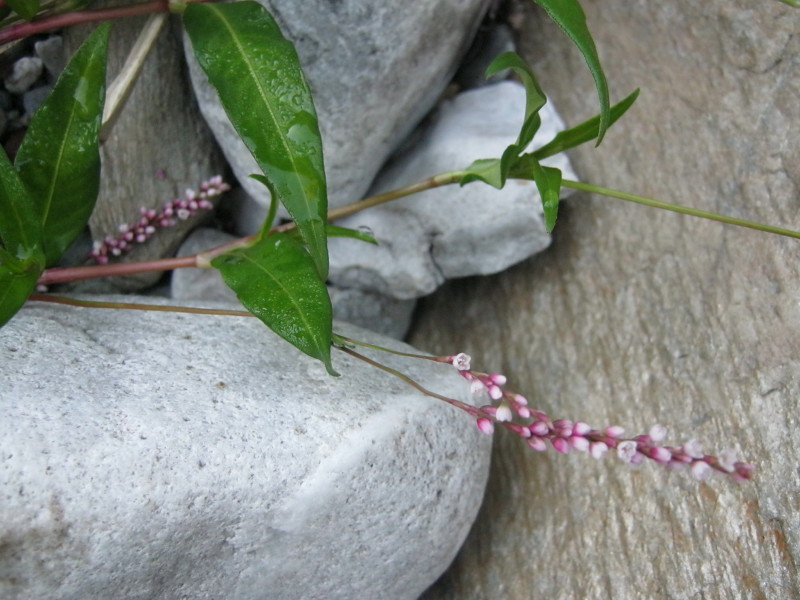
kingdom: Plantae
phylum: Tracheophyta
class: Magnoliopsida
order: Caryophyllales
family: Polygonaceae
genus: Persicaria
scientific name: Persicaria decipiens
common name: Willow-weed
